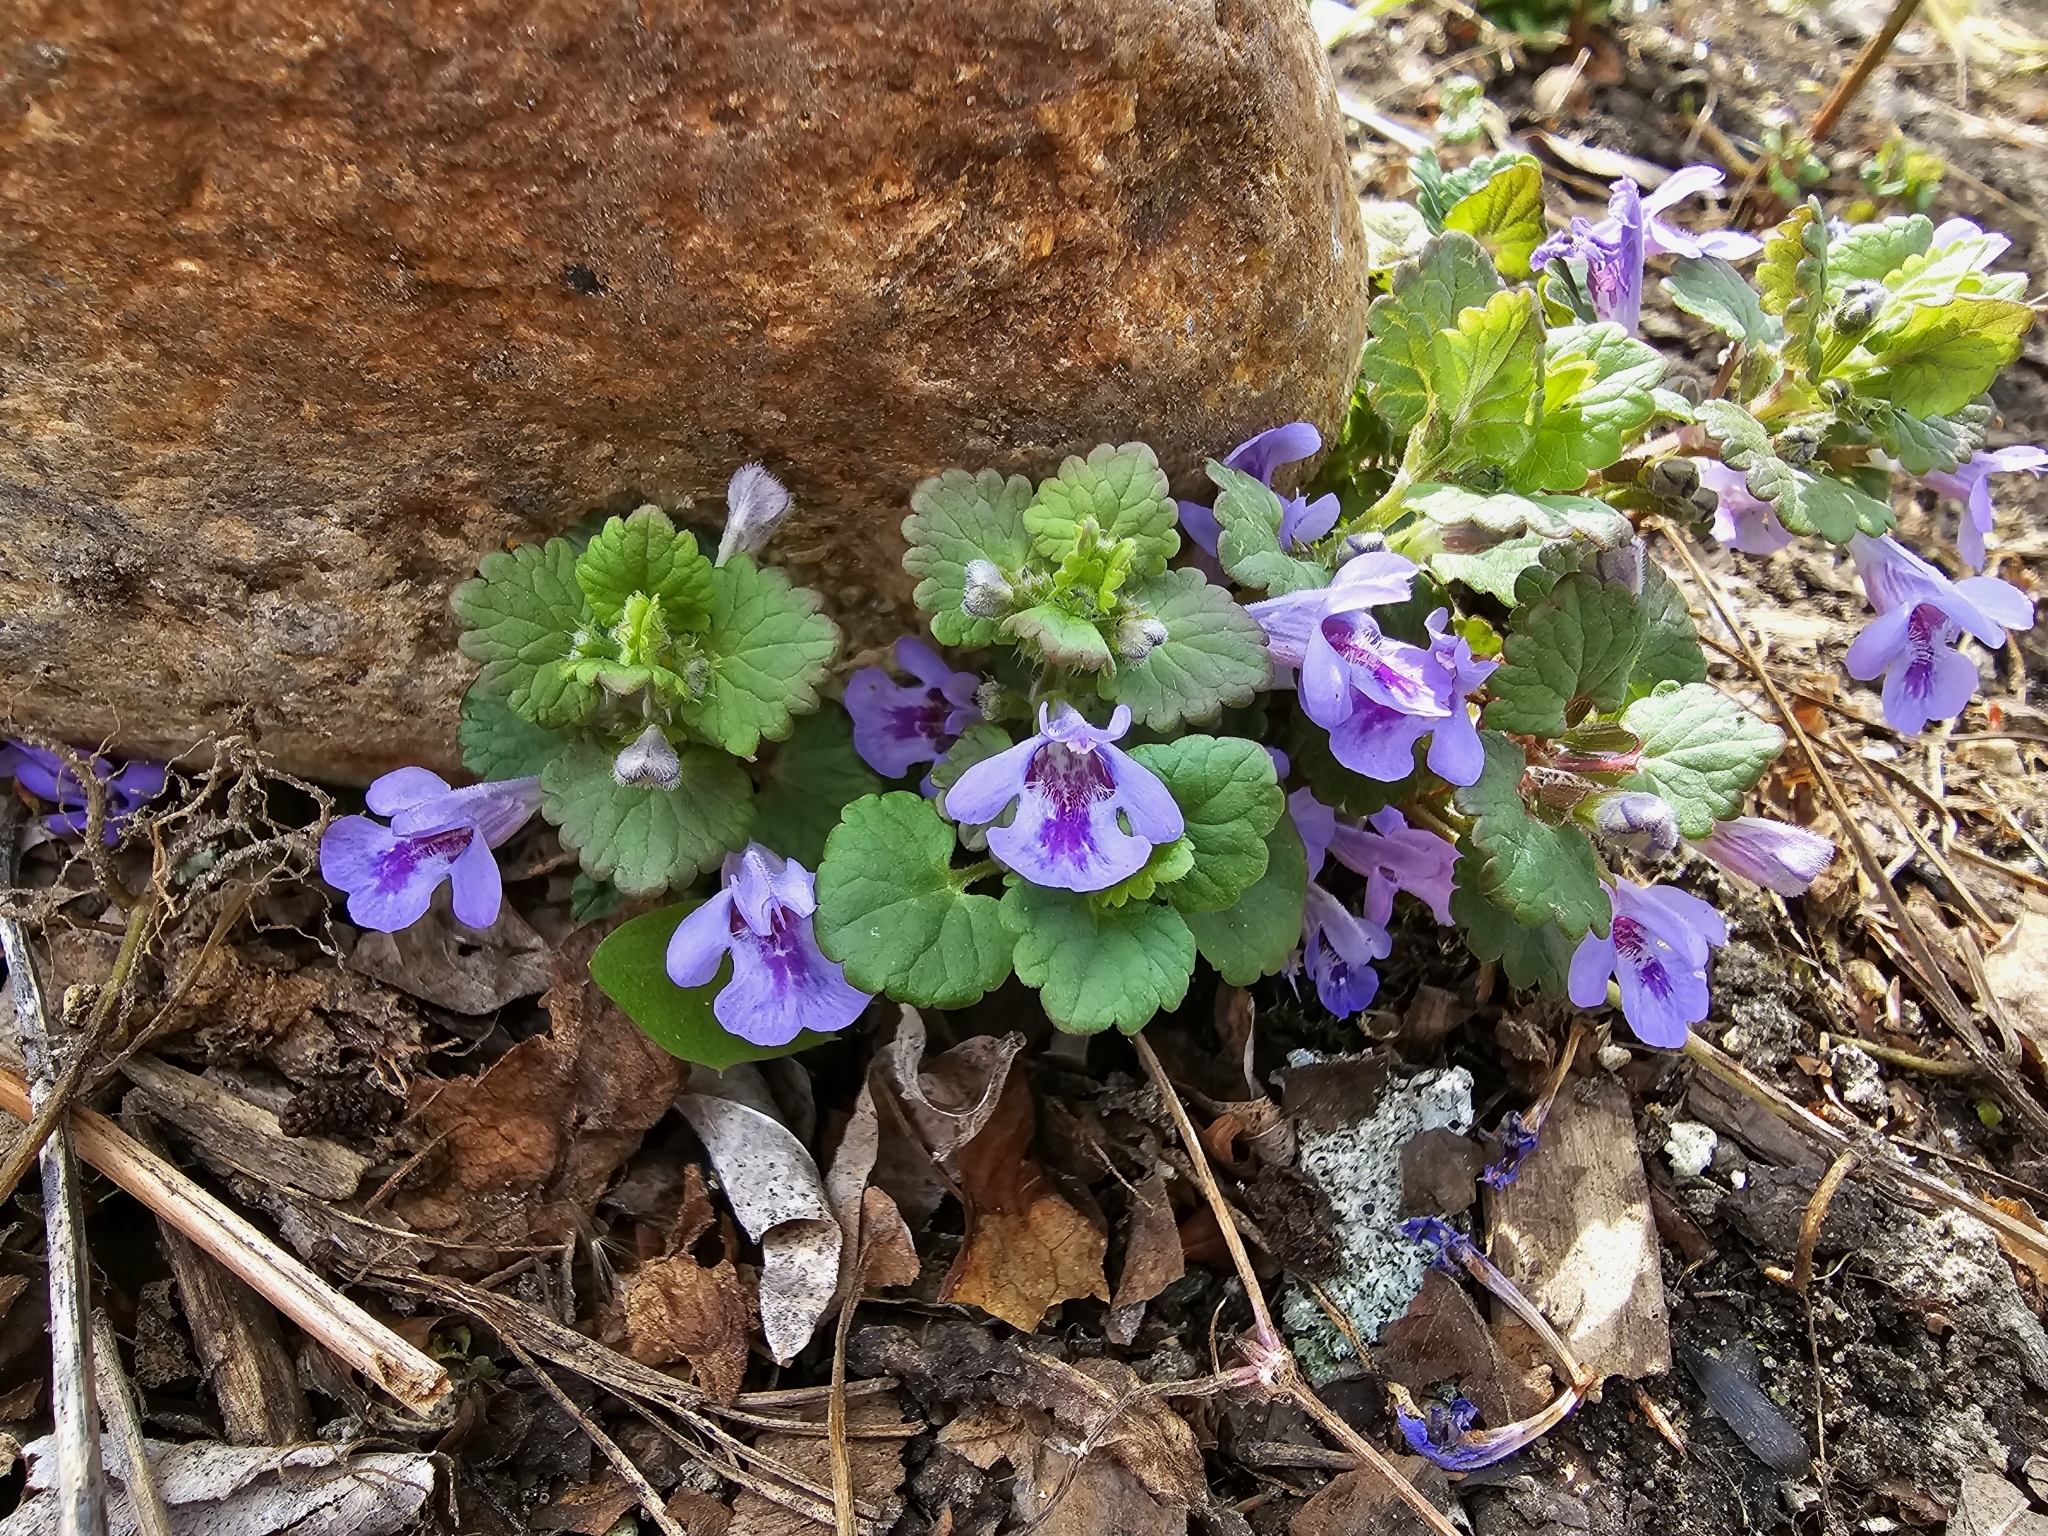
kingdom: Plantae
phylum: Tracheophyta
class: Magnoliopsida
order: Lamiales
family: Lamiaceae
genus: Glechoma
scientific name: Glechoma hederacea
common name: Ground ivy
